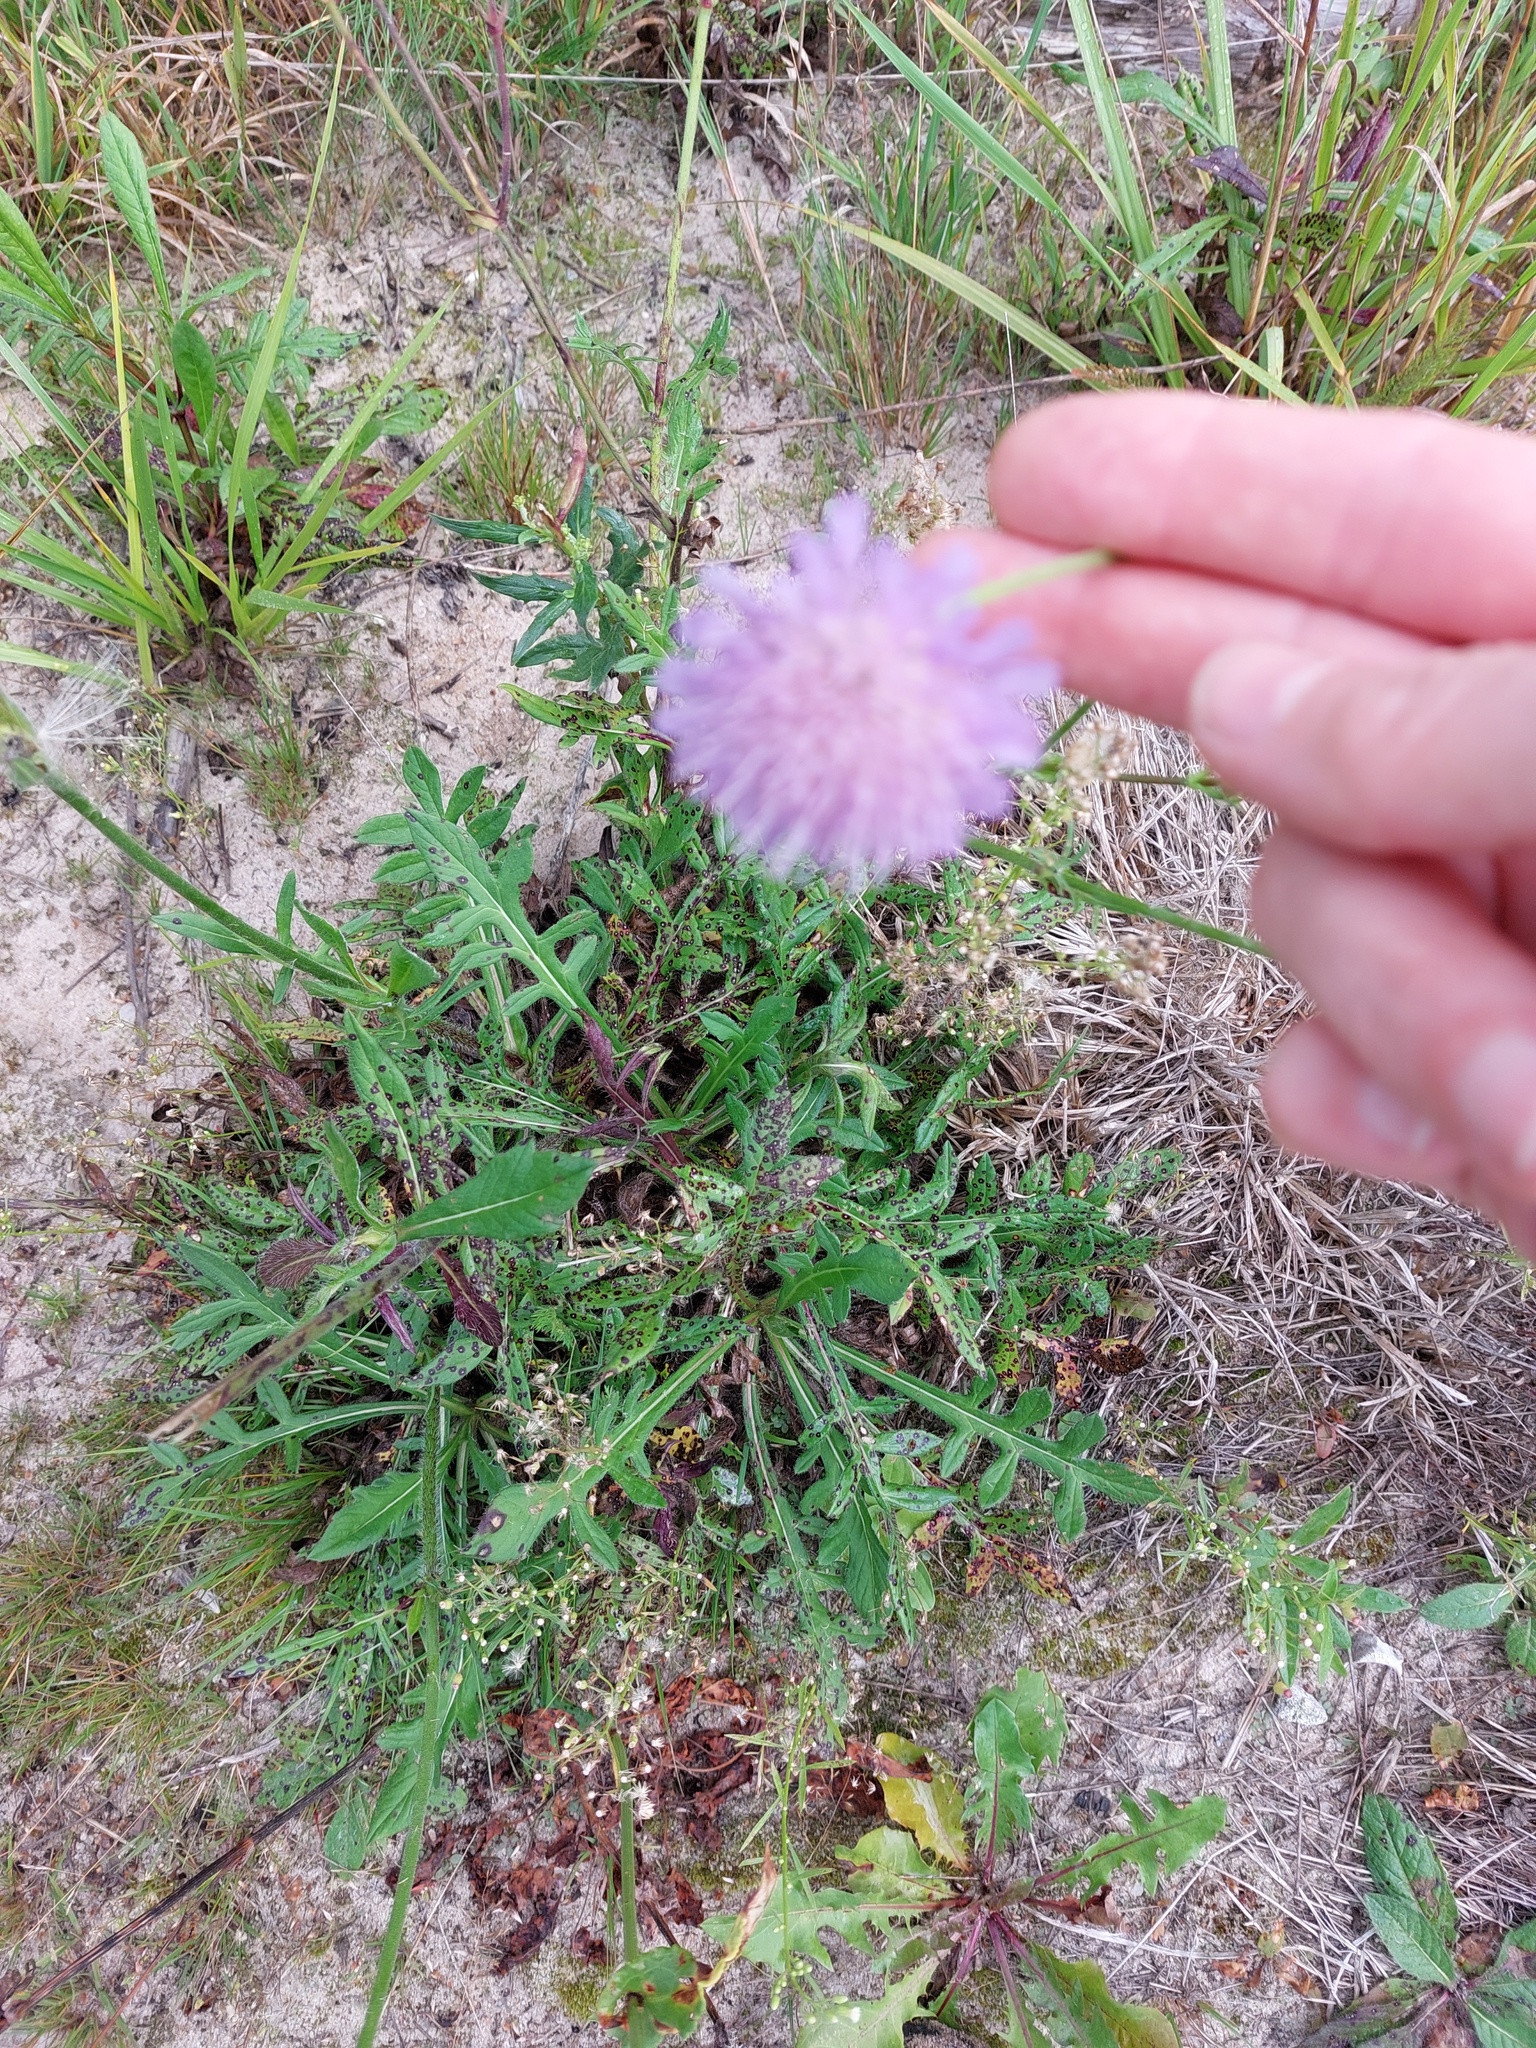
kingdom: Plantae
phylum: Tracheophyta
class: Magnoliopsida
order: Dipsacales
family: Caprifoliaceae
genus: Knautia
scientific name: Knautia arvensis
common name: Field scabiosa
